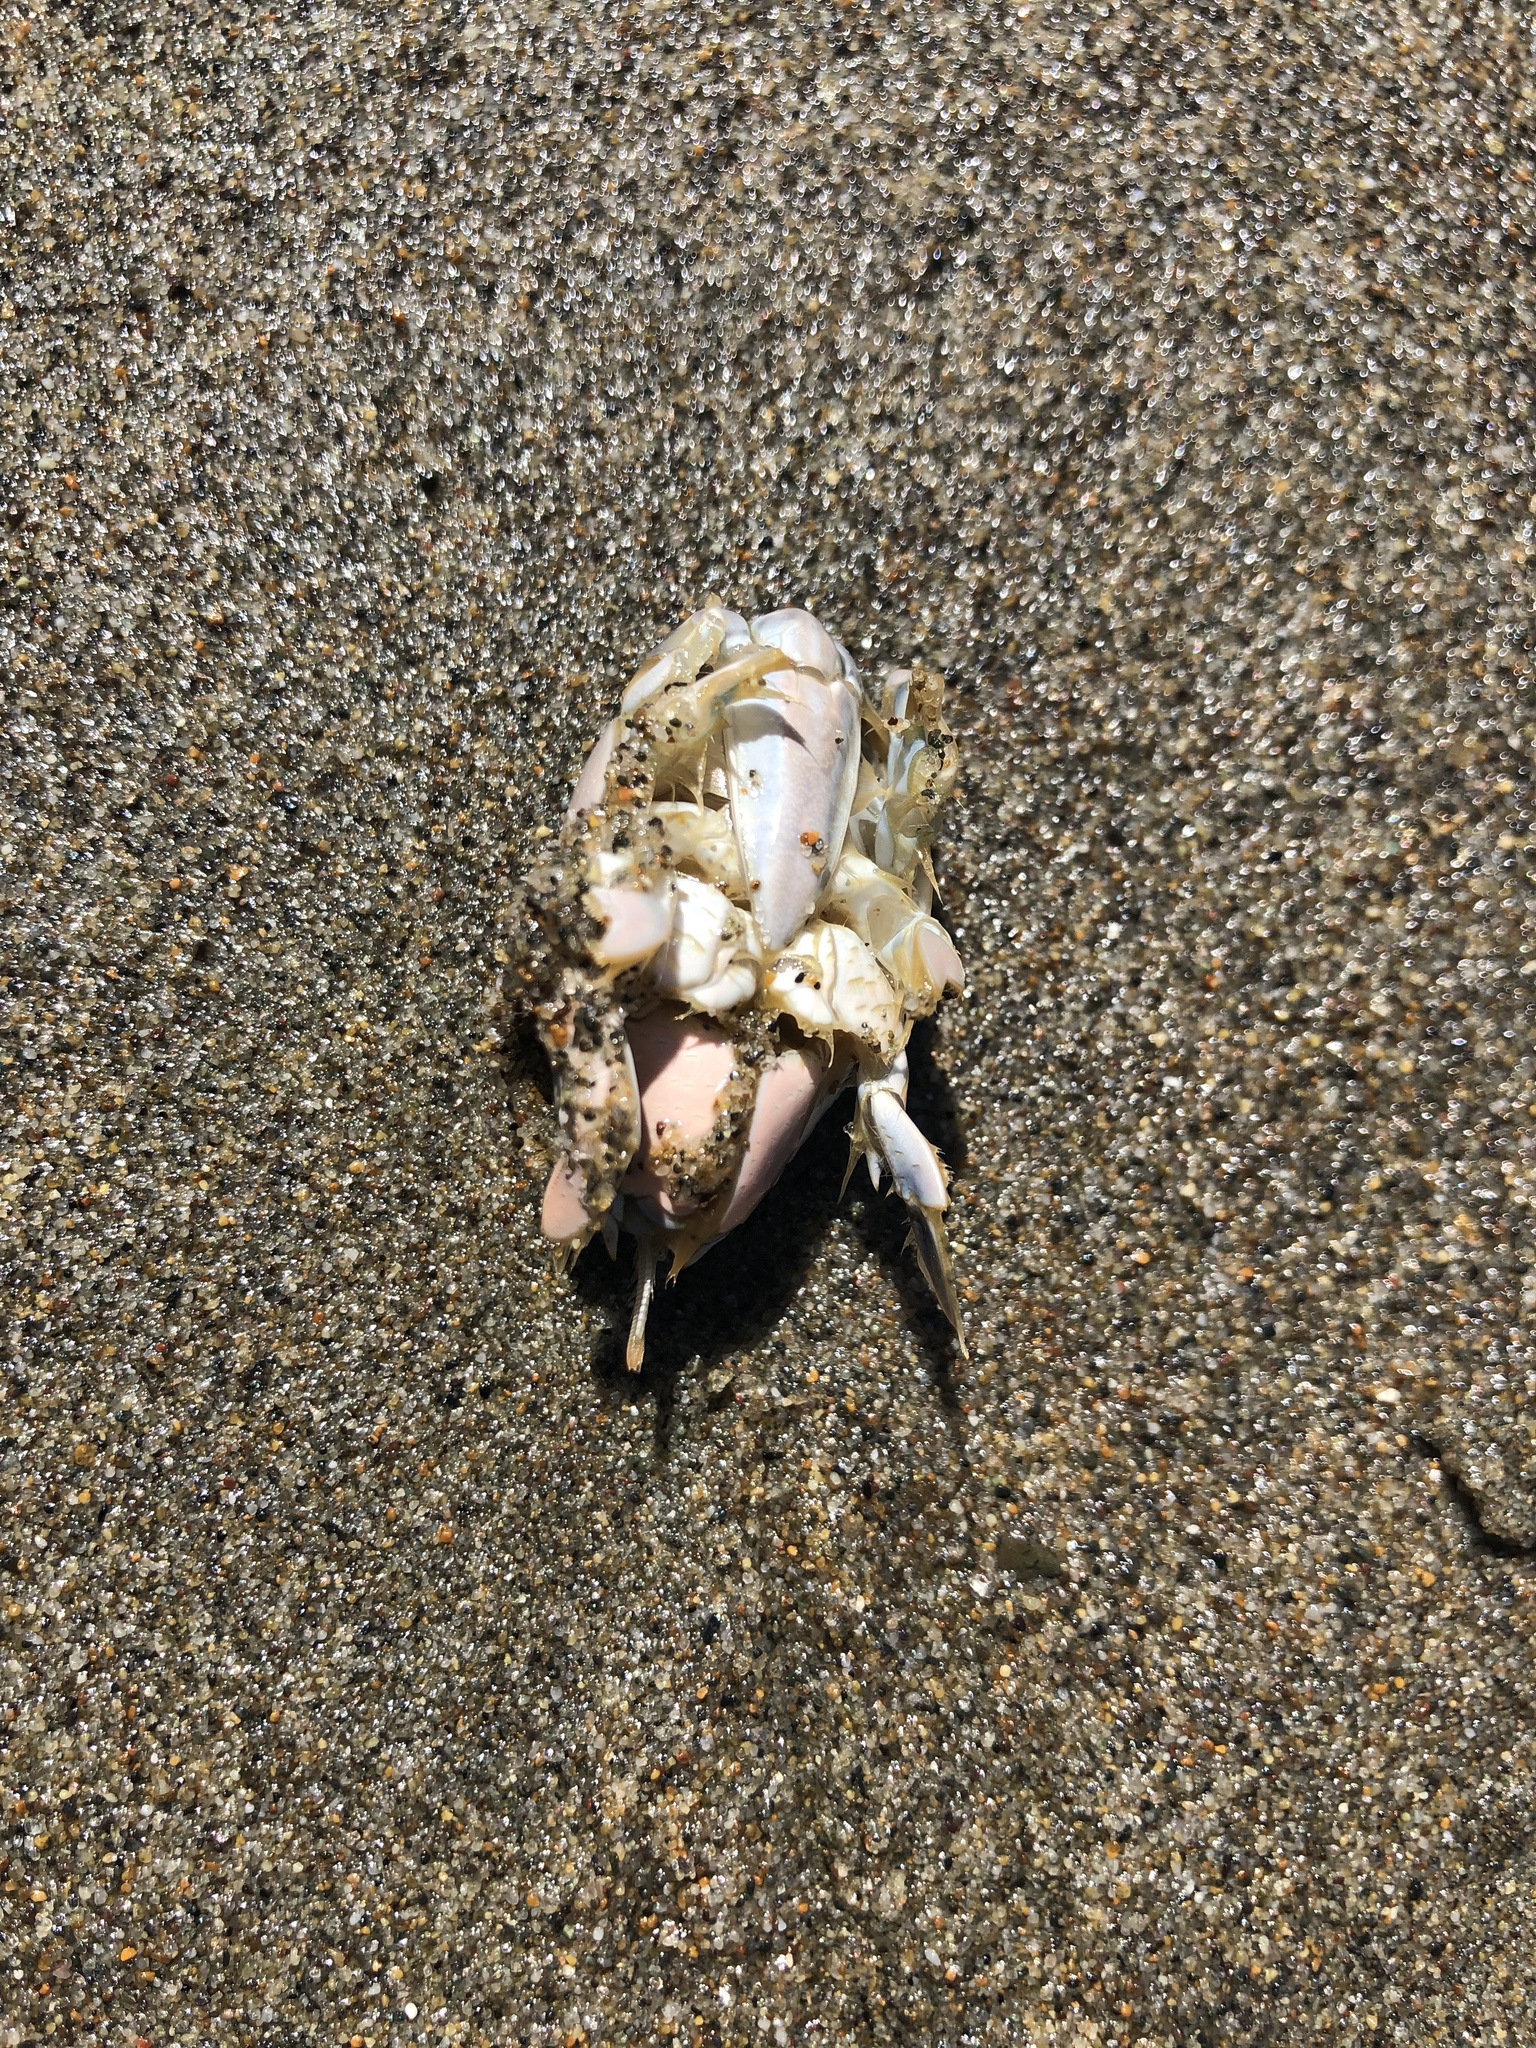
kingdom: Animalia
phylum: Arthropoda
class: Malacostraca
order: Decapoda
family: Hippidae
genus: Emerita
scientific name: Emerita analoga
